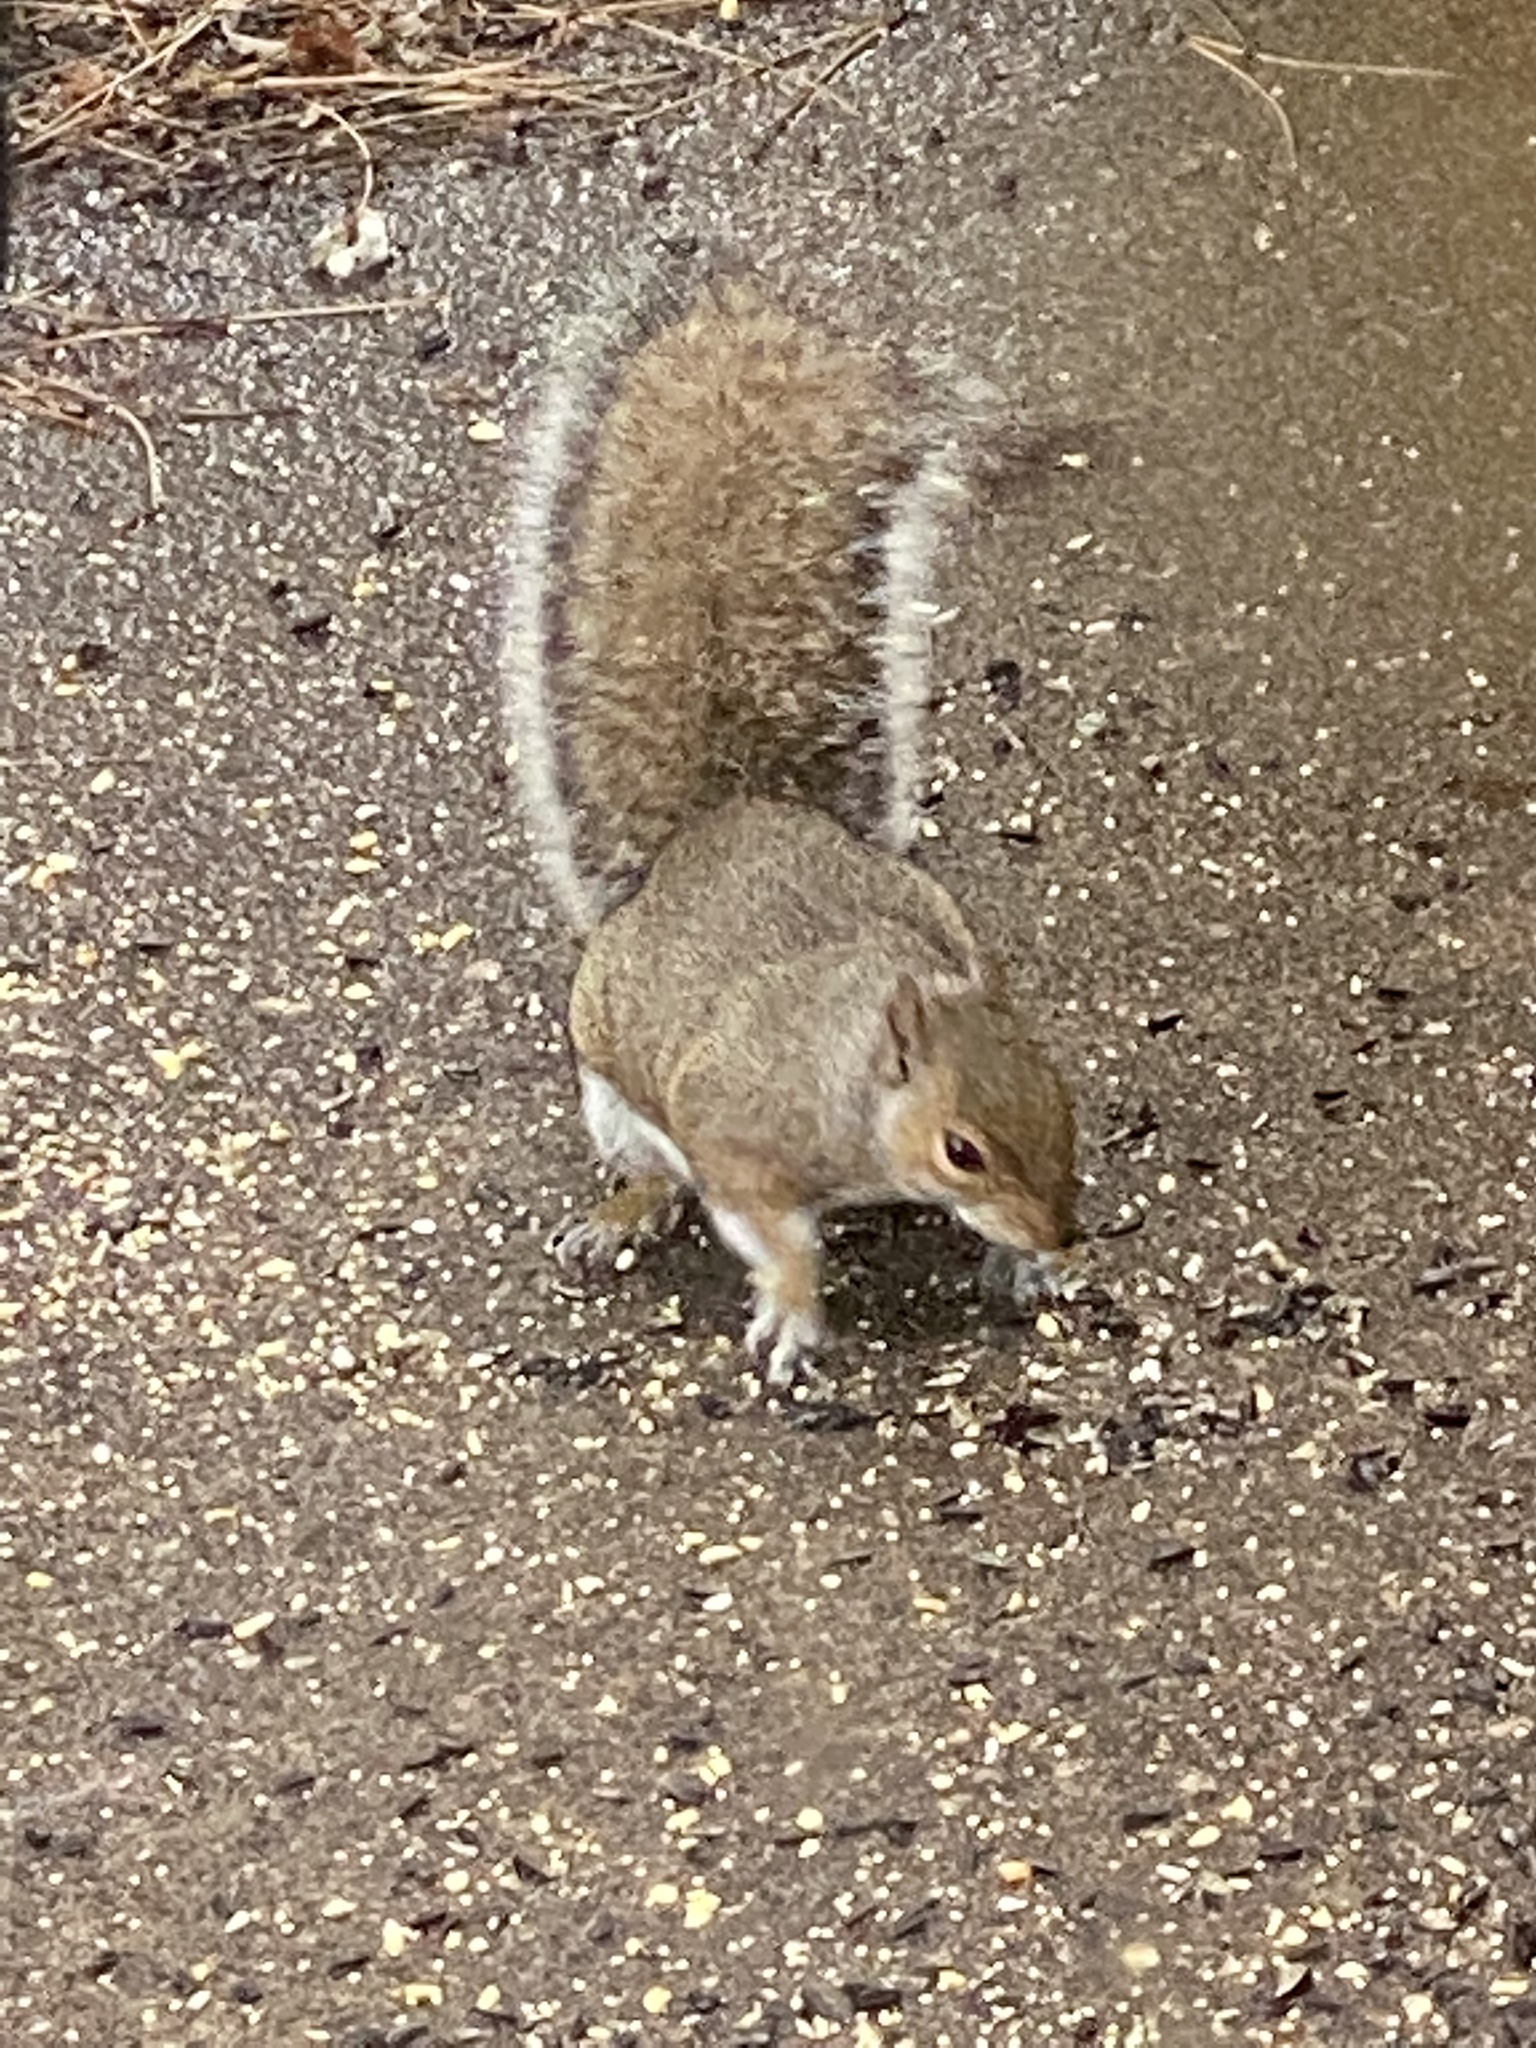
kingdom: Animalia
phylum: Chordata
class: Mammalia
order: Rodentia
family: Sciuridae
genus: Sciurus
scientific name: Sciurus carolinensis
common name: Eastern gray squirrel
